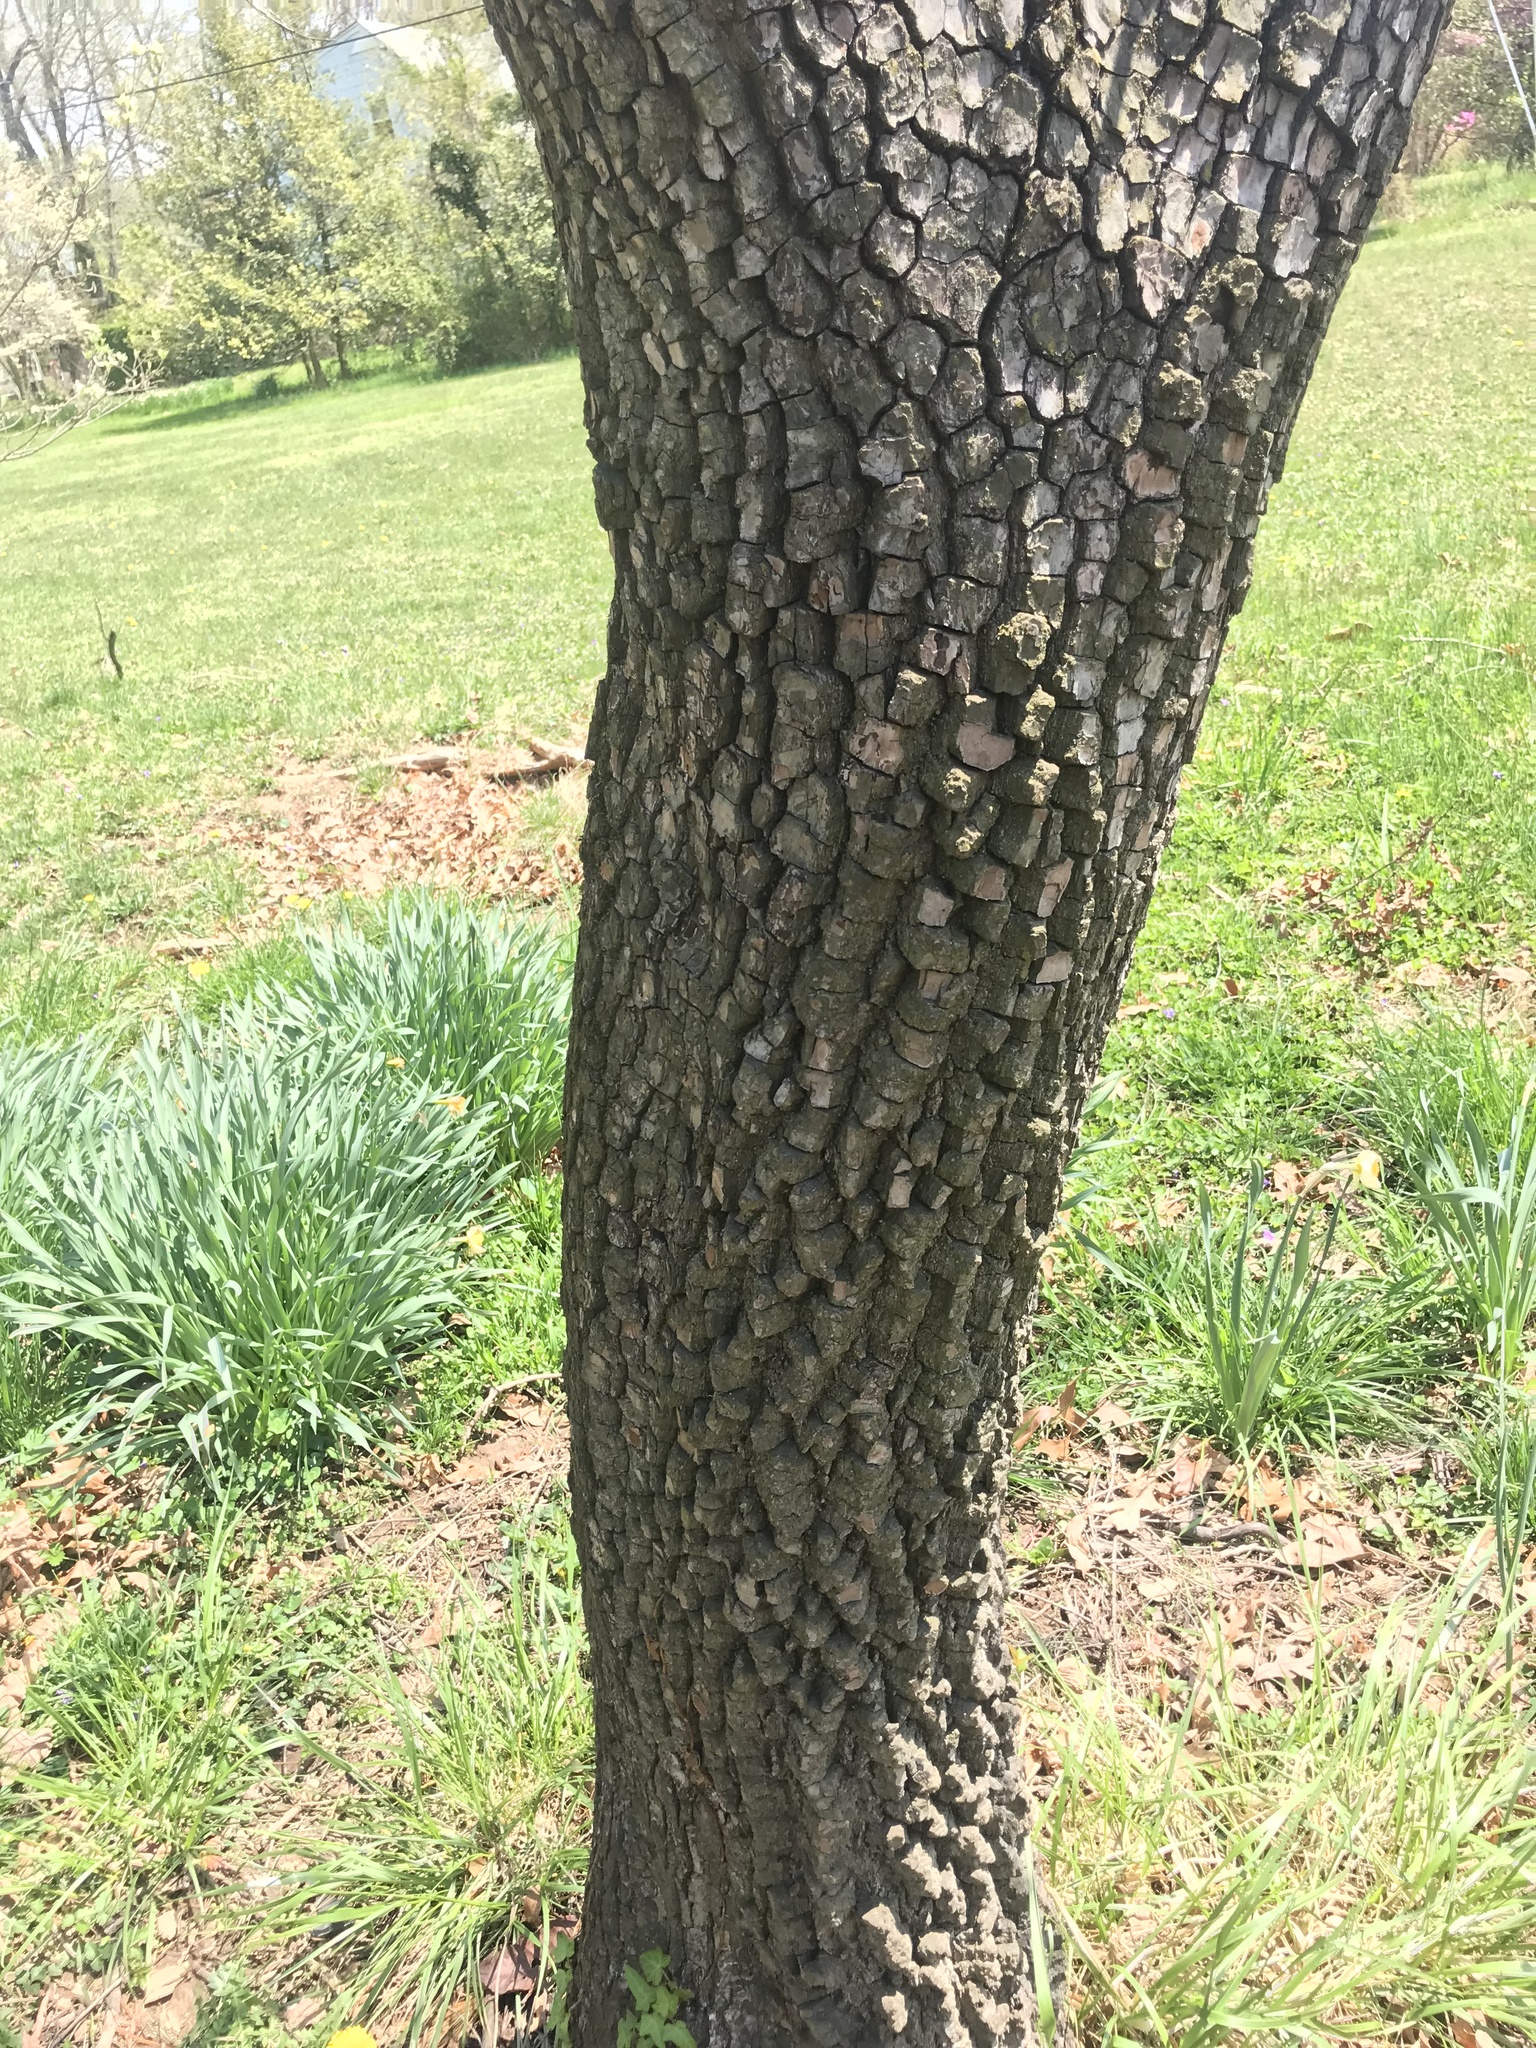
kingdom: Plantae
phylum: Tracheophyta
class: Magnoliopsida
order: Ericales
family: Ebenaceae
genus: Diospyros
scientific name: Diospyros virginiana
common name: Persimmon
